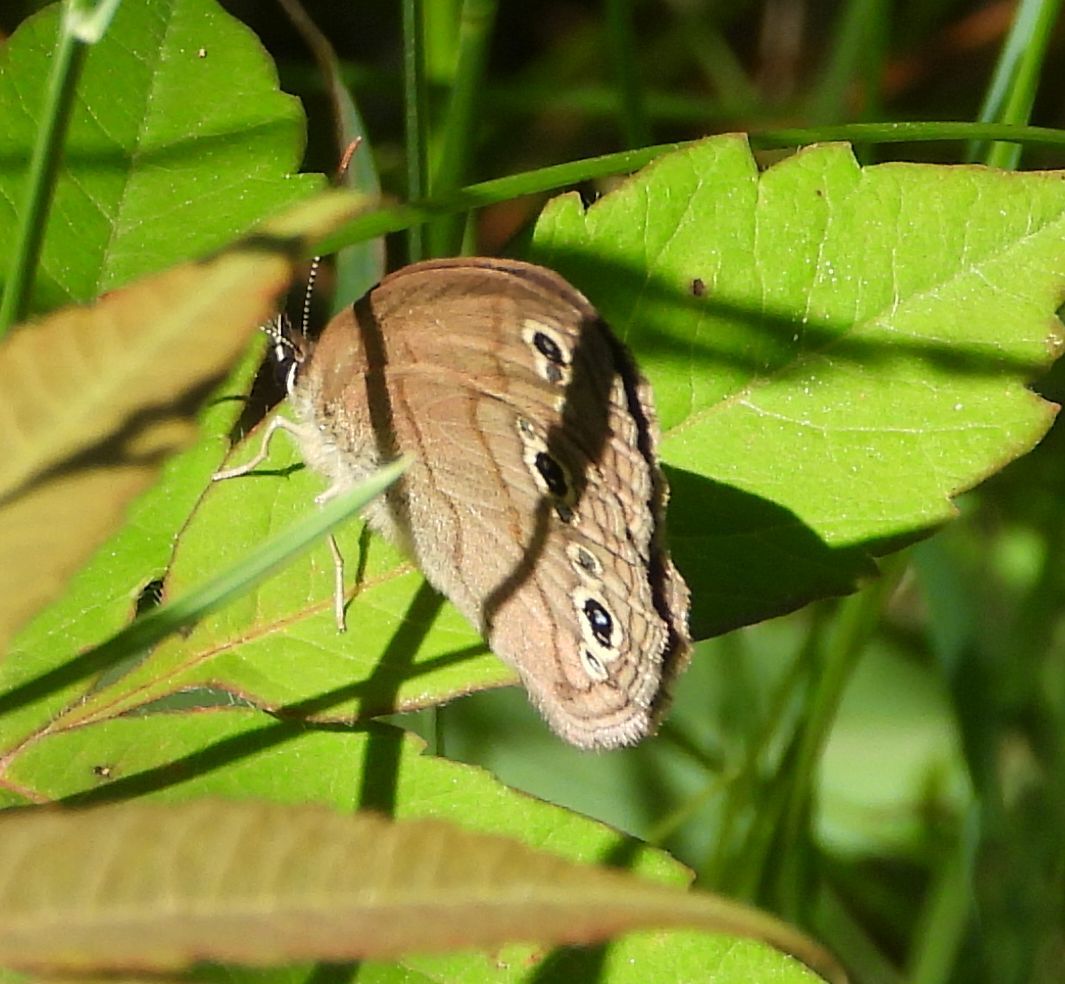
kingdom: Animalia
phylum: Arthropoda
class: Insecta
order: Lepidoptera
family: Nymphalidae
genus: Euptychia
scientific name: Euptychia cymela
